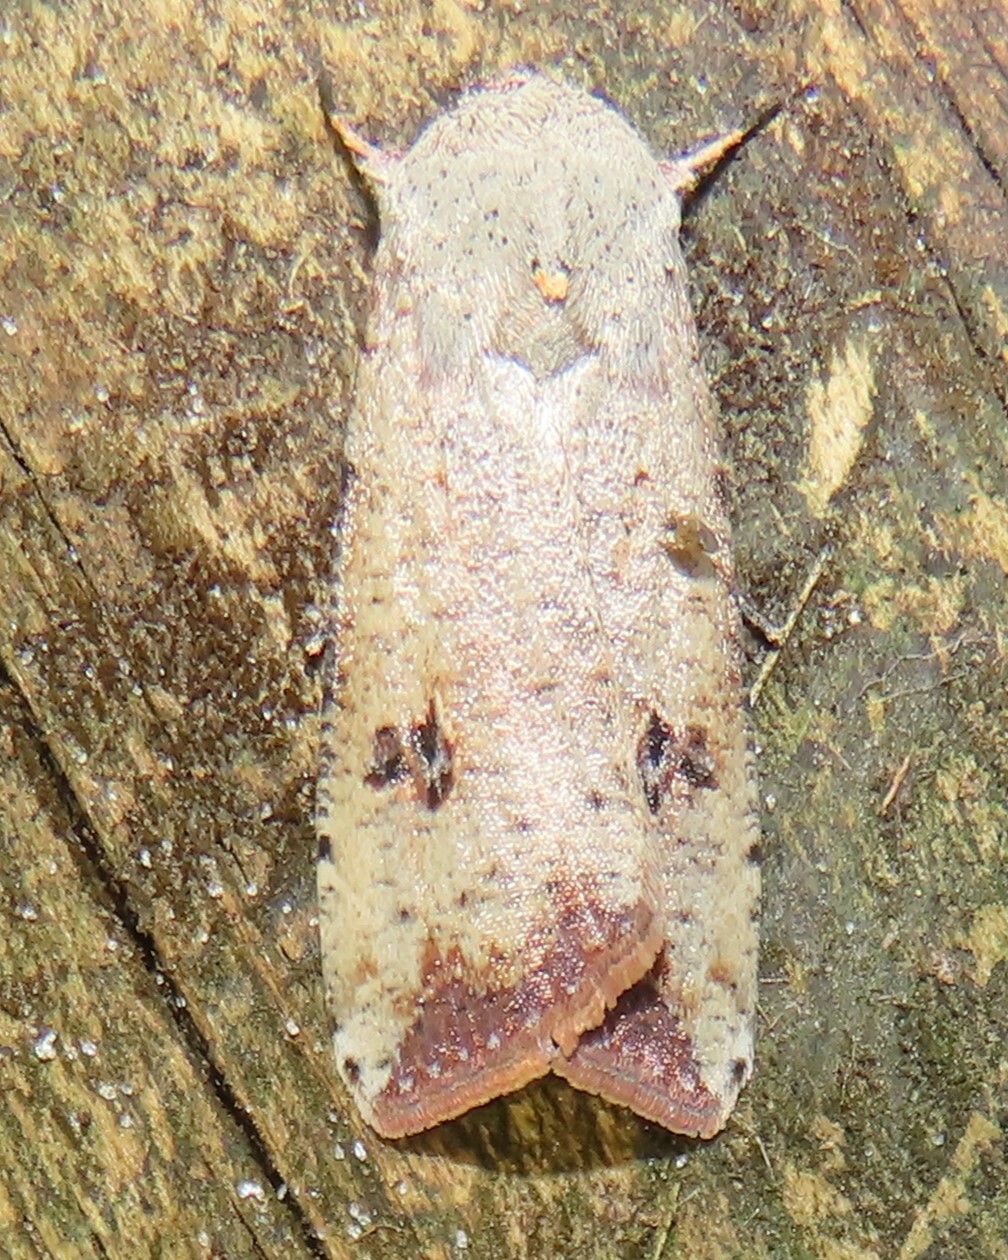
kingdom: Animalia
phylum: Arthropoda
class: Insecta
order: Lepidoptera
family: Noctuidae
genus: Anicla
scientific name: Anicla infecta
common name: Green cutworm
